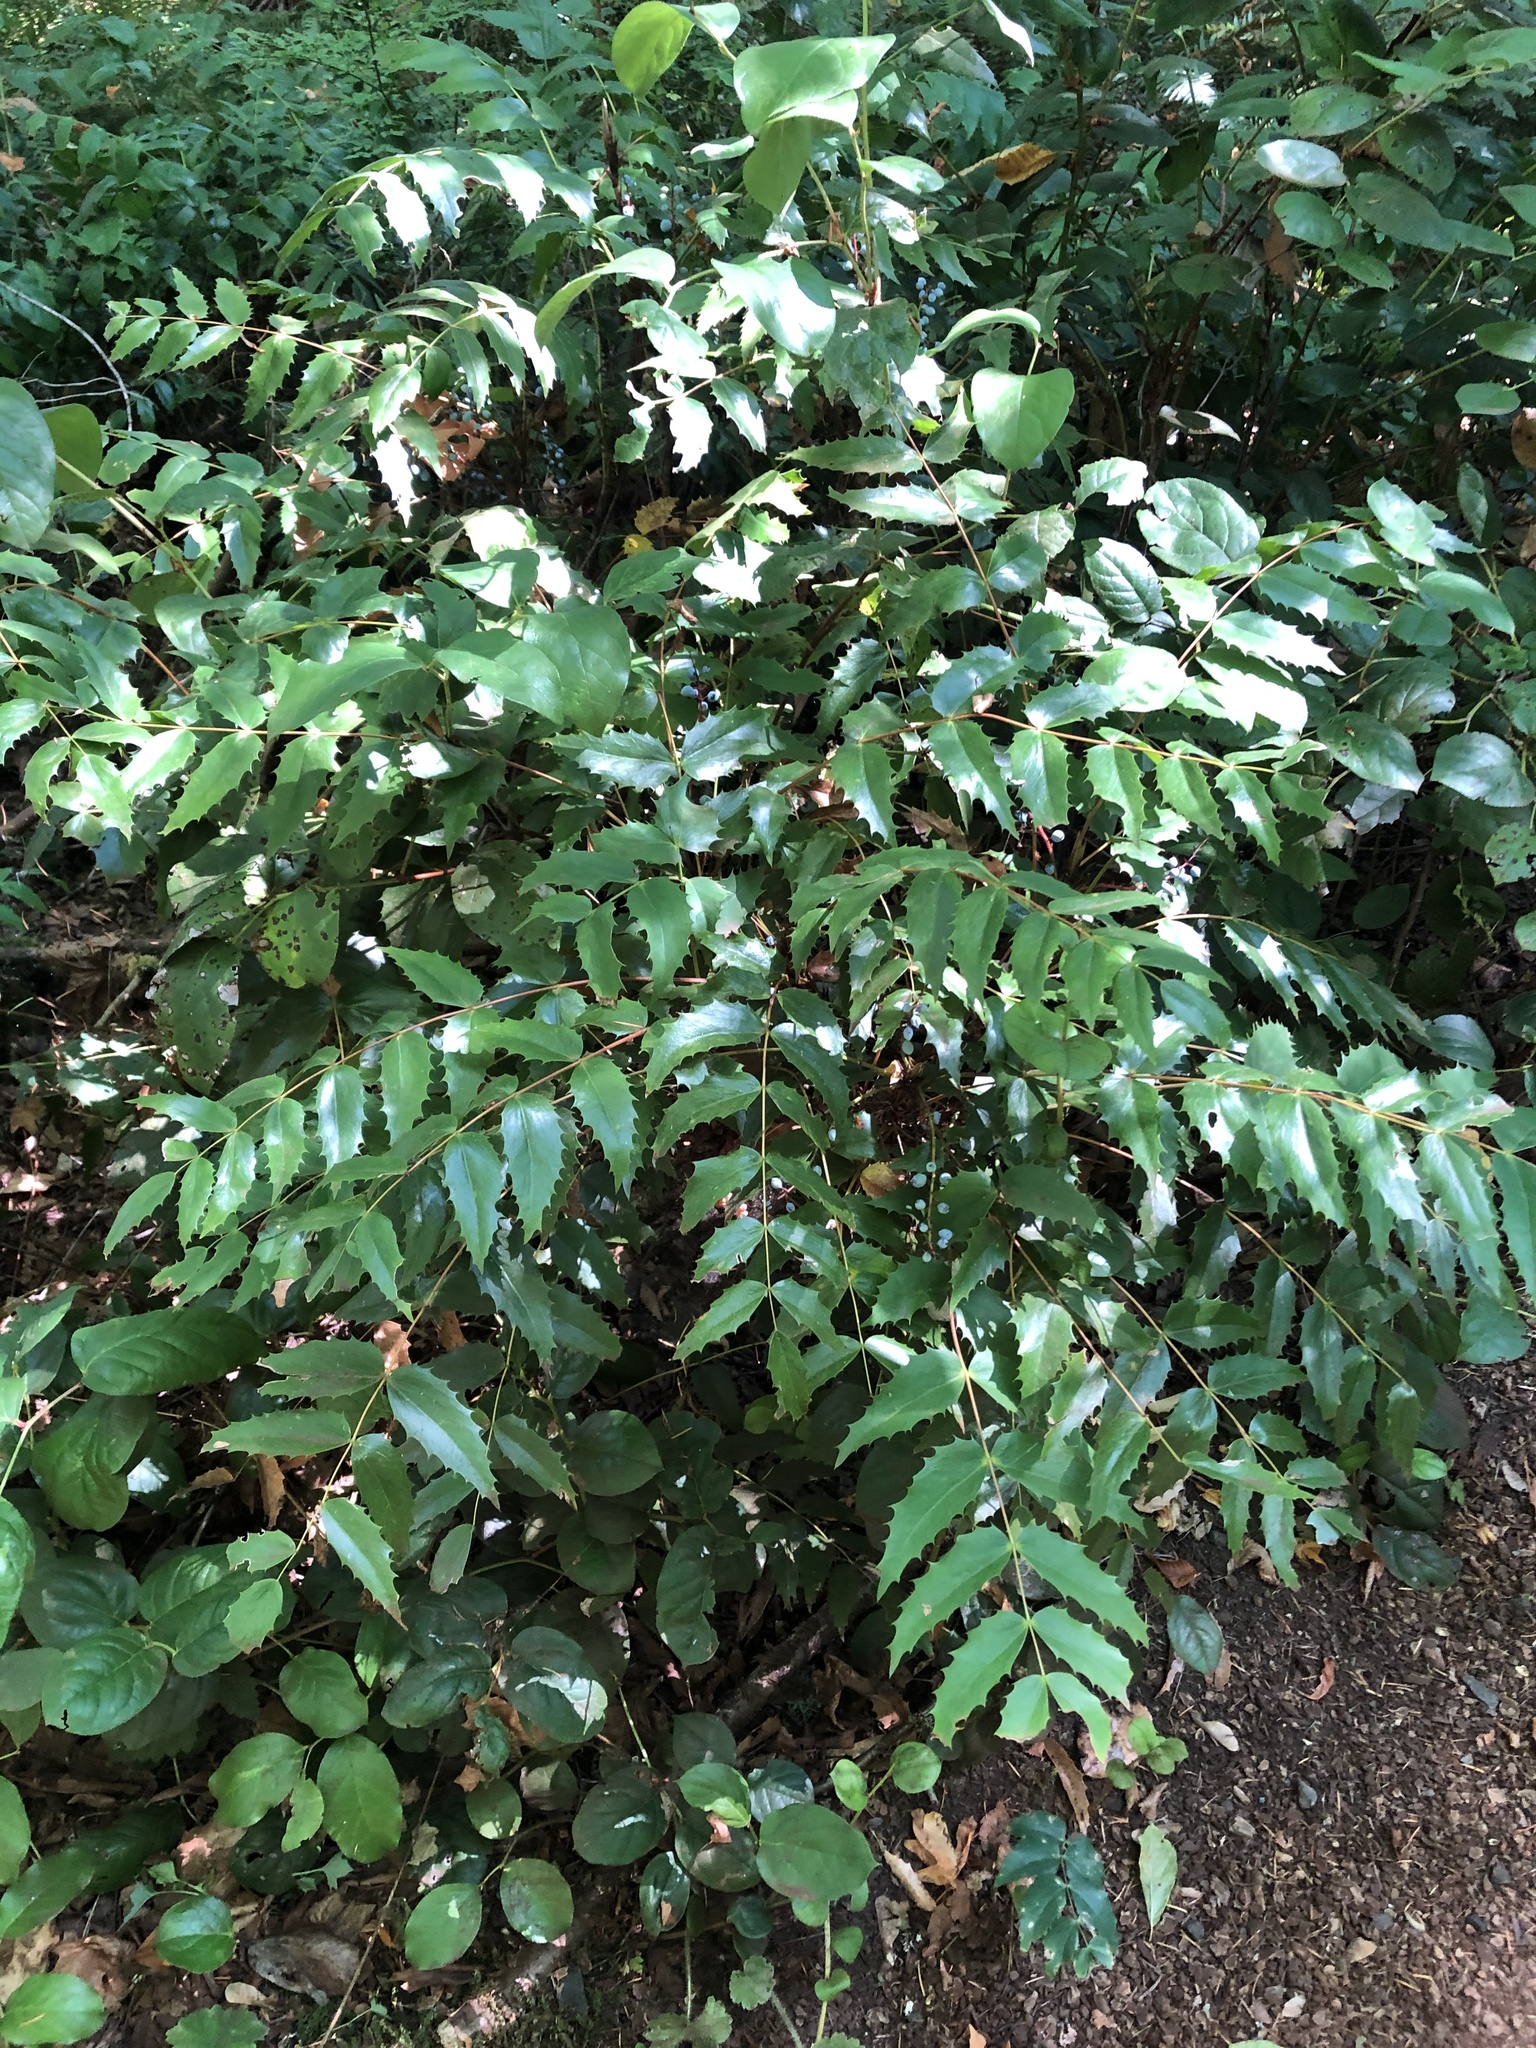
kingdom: Plantae
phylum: Tracheophyta
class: Magnoliopsida
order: Ranunculales
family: Berberidaceae
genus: Mahonia
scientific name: Mahonia nervosa
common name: Cascade oregon-grape
